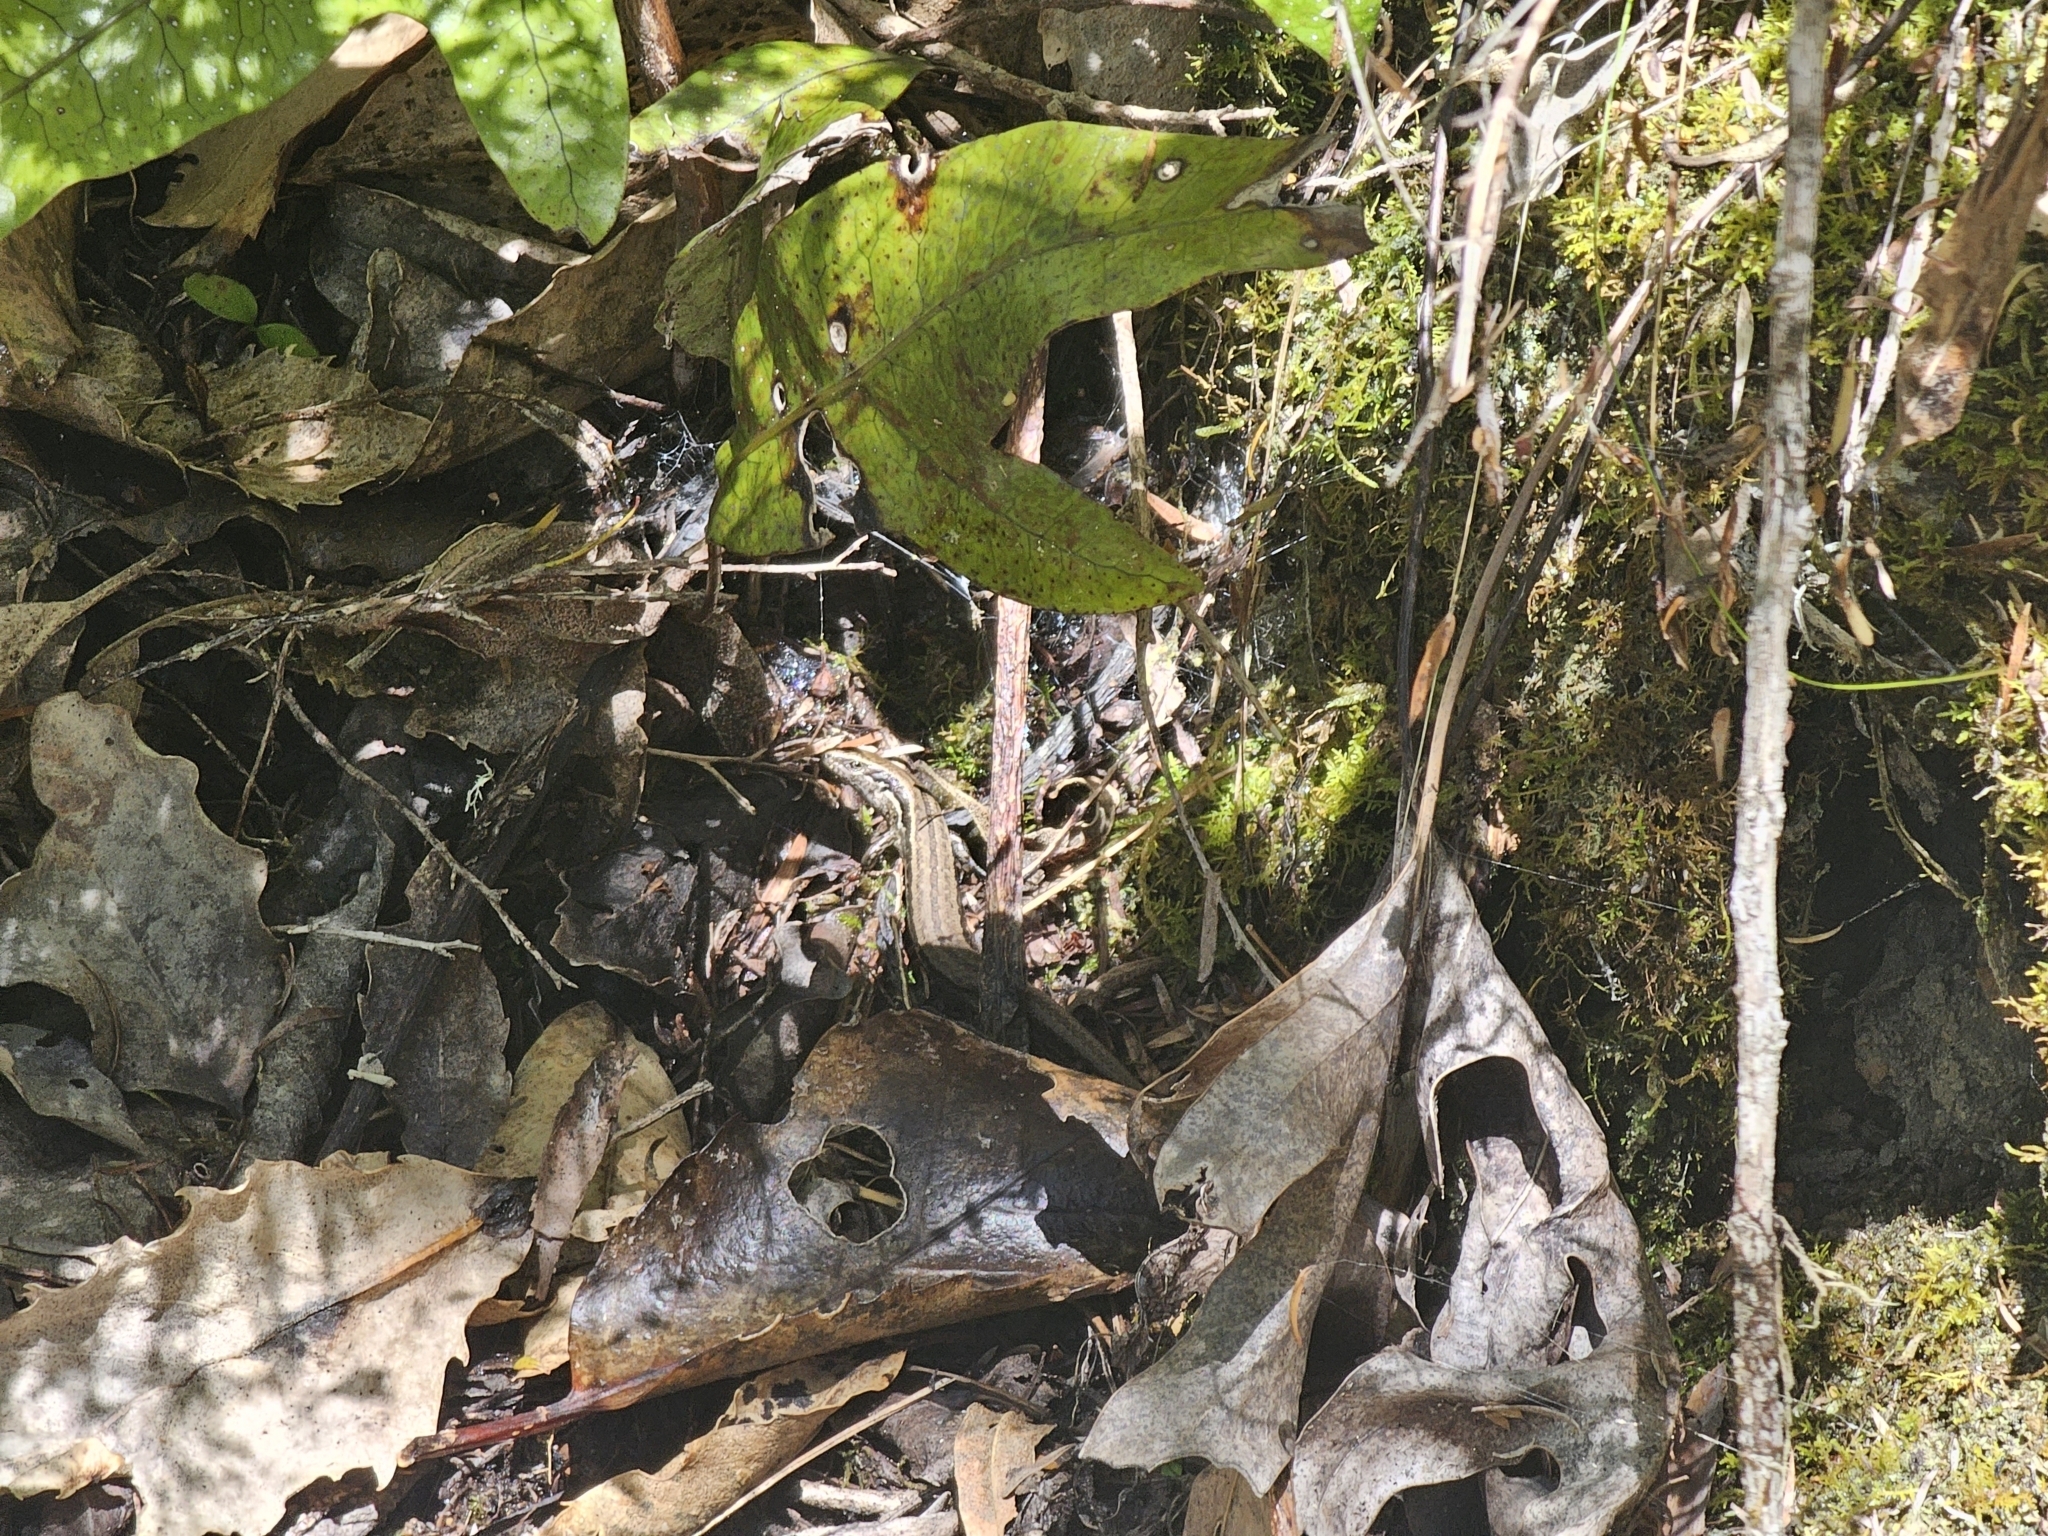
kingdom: Animalia
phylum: Chordata
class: Squamata
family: Scincidae
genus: Oligosoma
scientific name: Oligosoma polychroma
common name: Common new zealand skink
